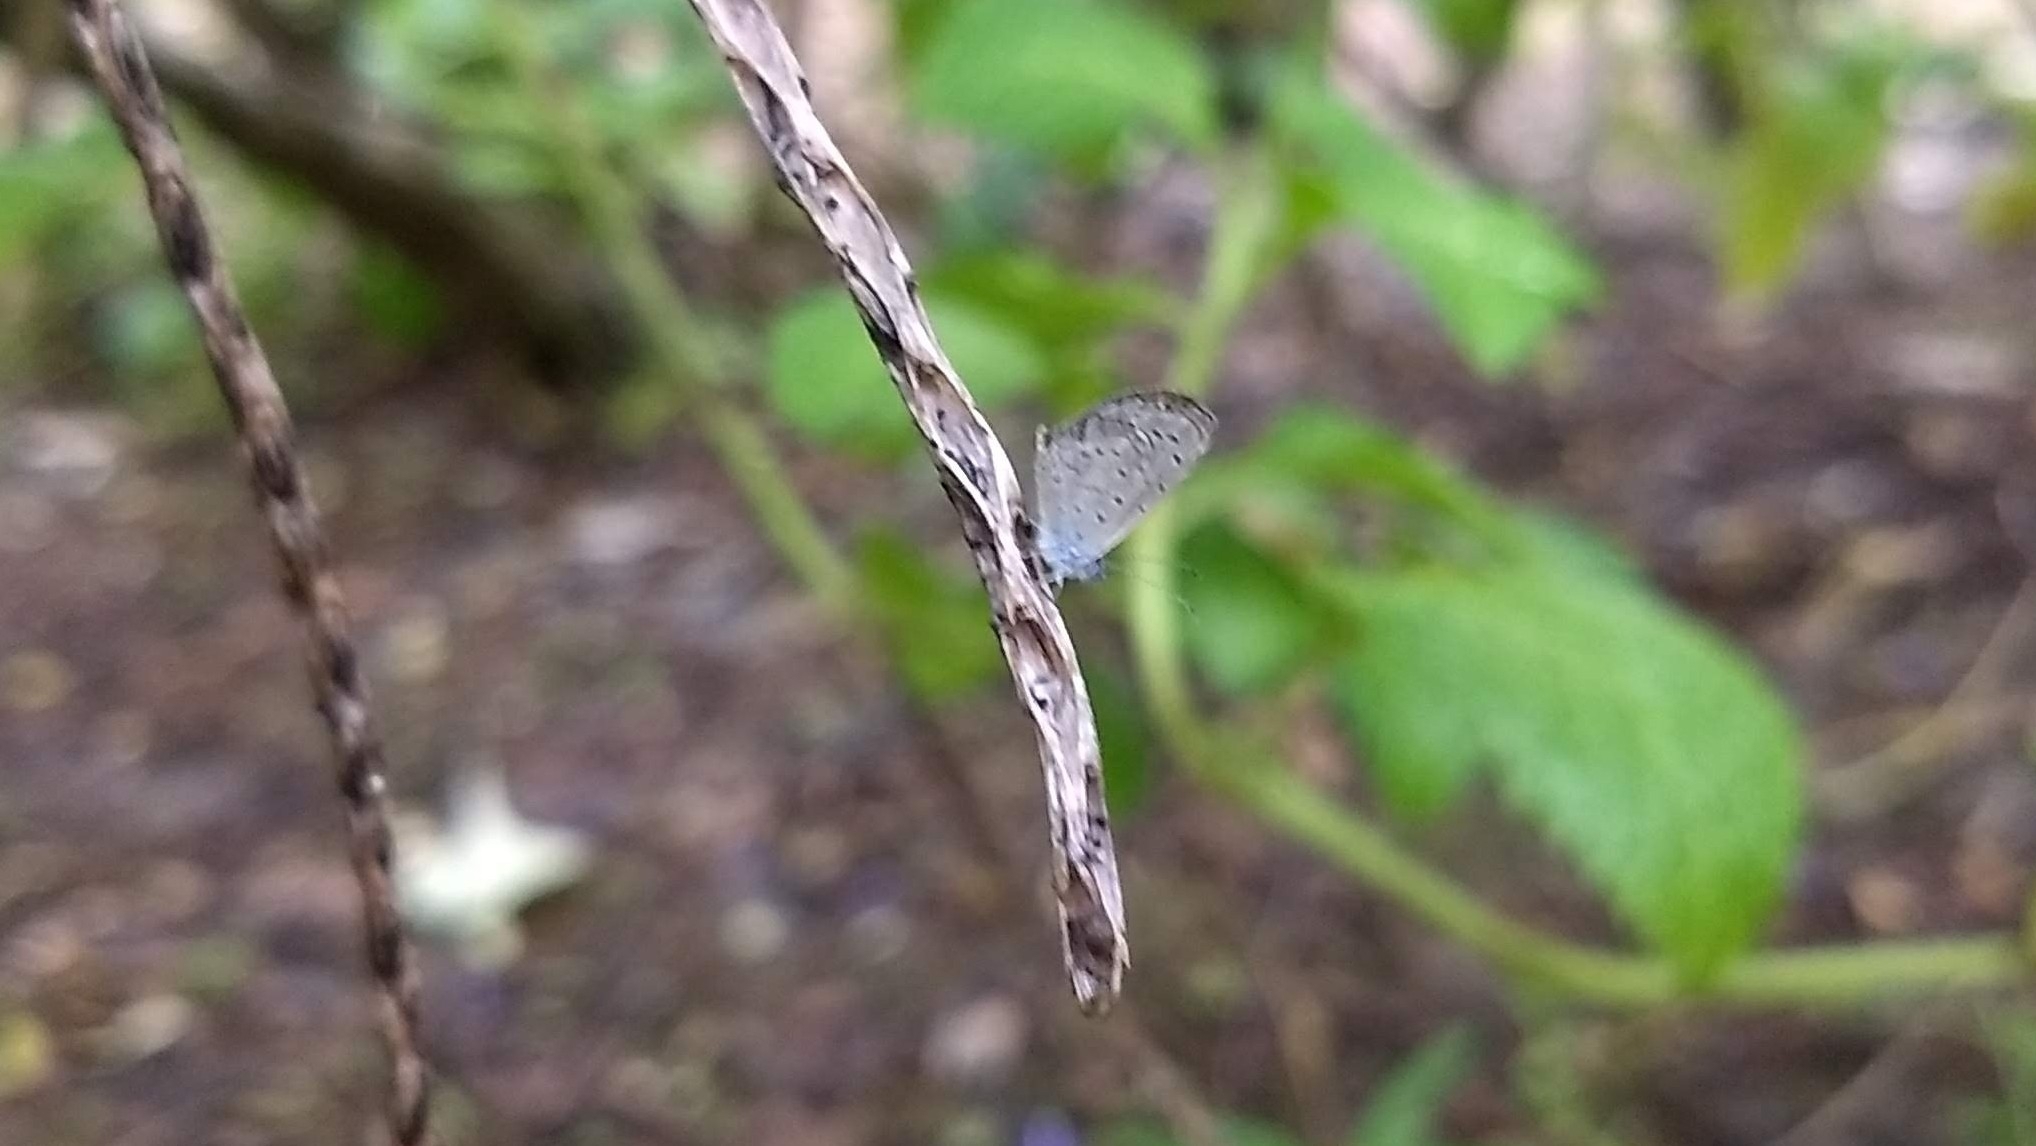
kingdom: Animalia
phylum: Arthropoda
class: Insecta
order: Lepidoptera
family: Lycaenidae
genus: Zizula
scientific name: Zizula hylax
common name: Gaika blue
